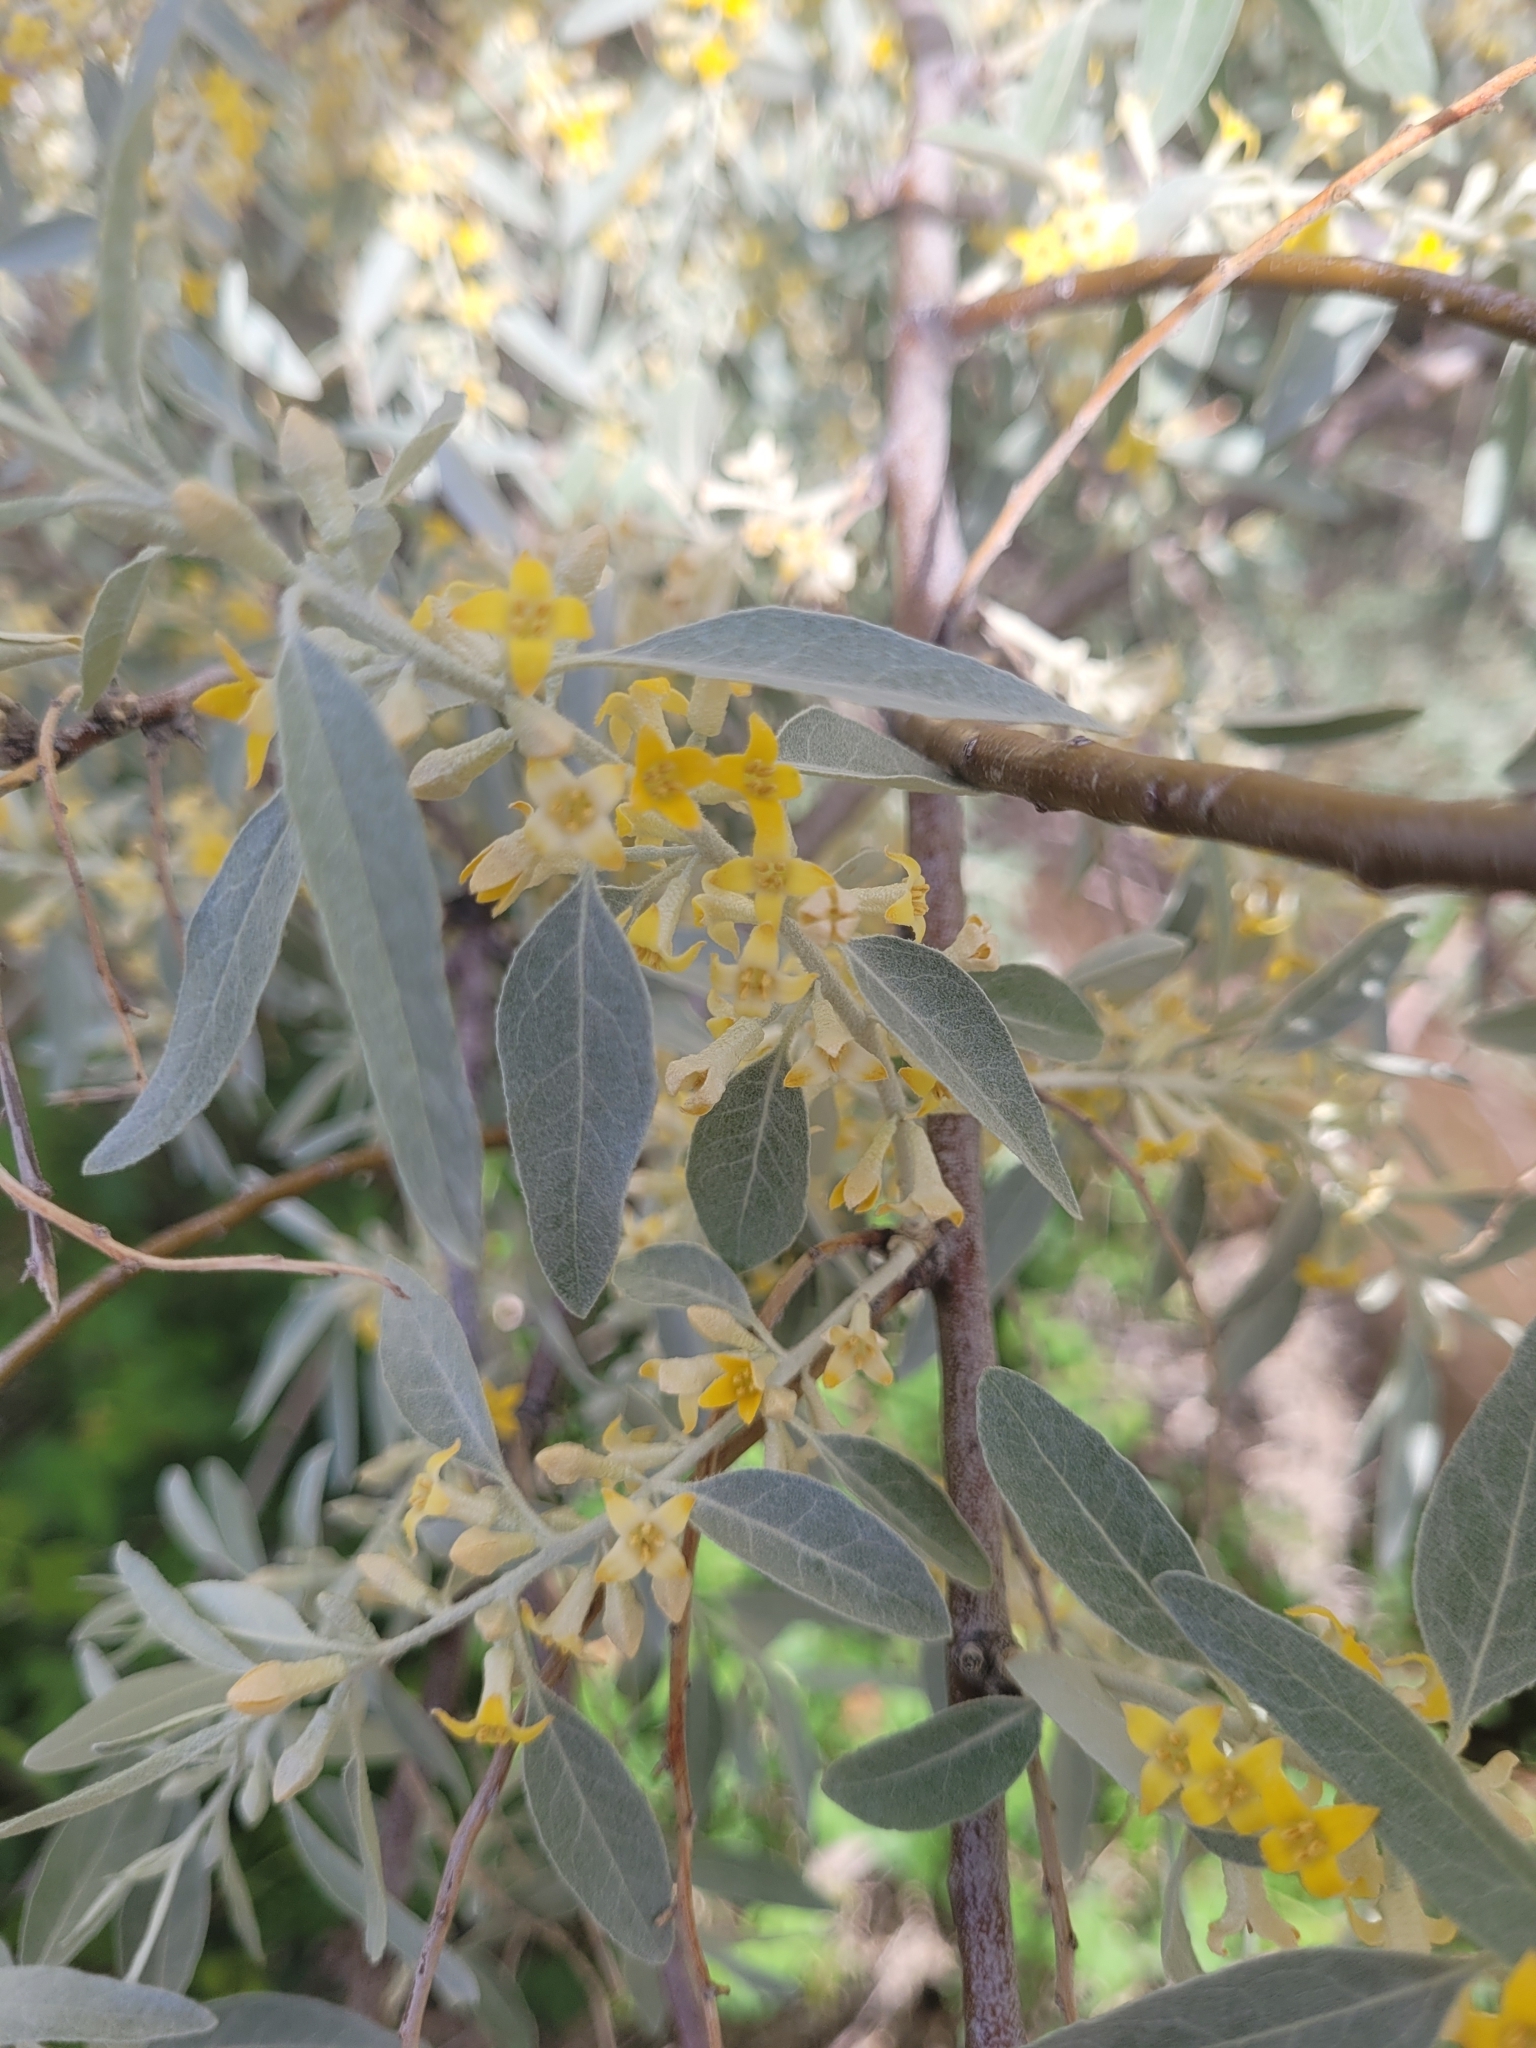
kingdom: Plantae
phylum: Tracheophyta
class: Magnoliopsida
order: Rosales
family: Elaeagnaceae
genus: Elaeagnus
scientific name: Elaeagnus angustifolia
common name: Russian olive
